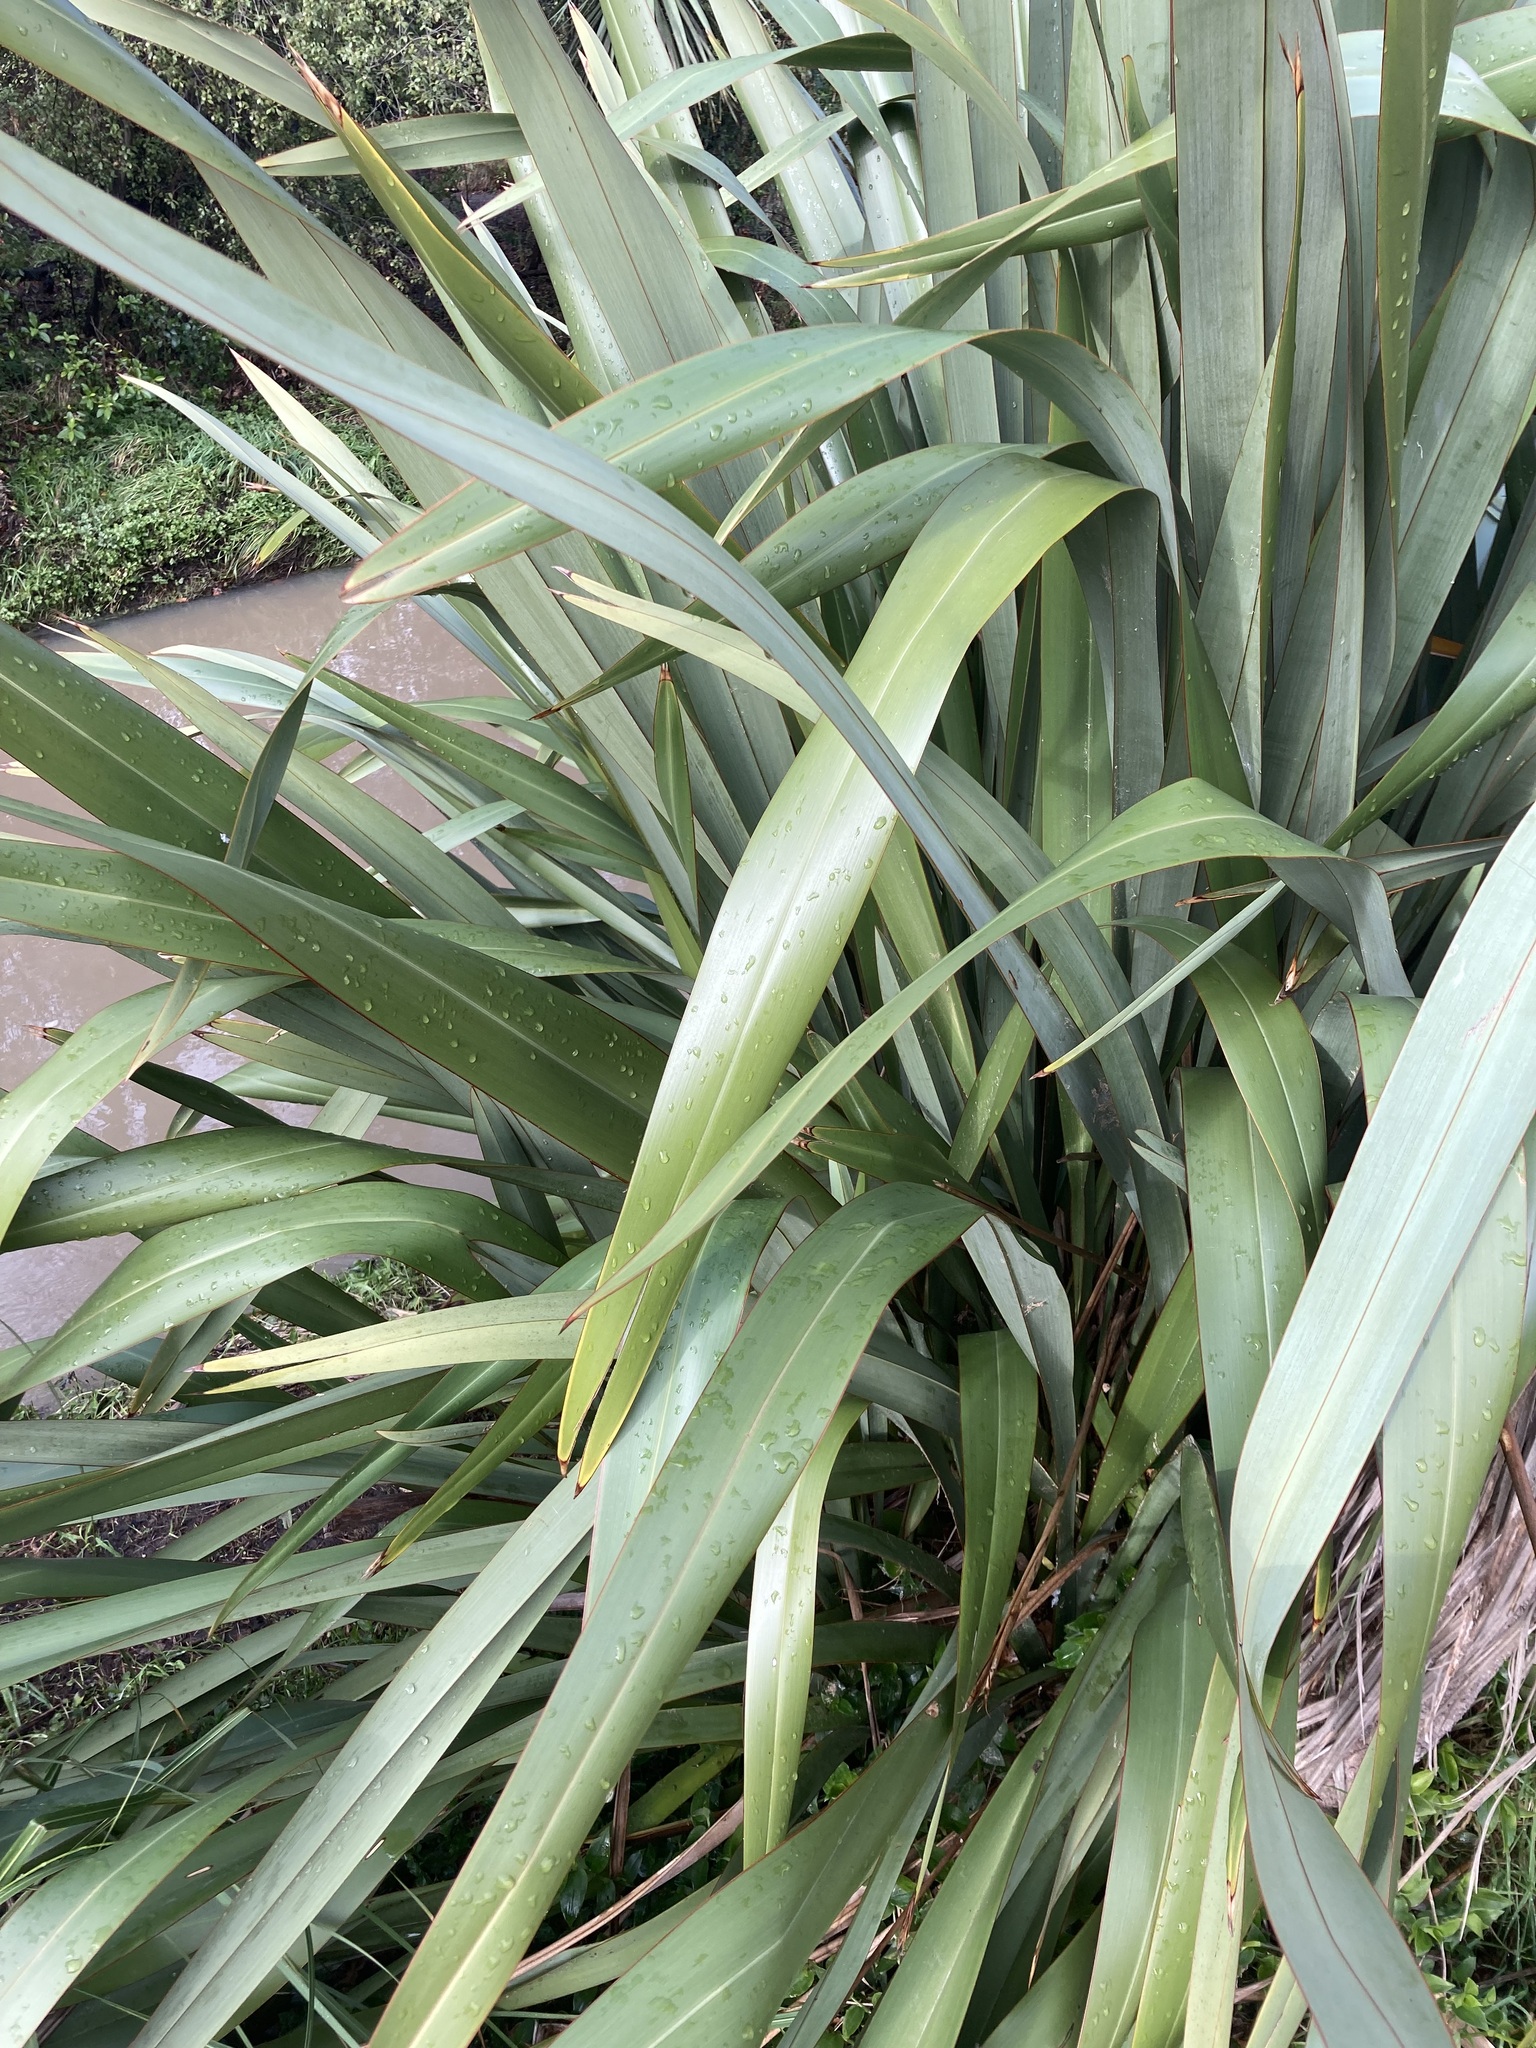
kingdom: Plantae
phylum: Tracheophyta
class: Liliopsida
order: Asparagales
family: Asphodelaceae
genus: Phormium
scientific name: Phormium tenax
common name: New zealand flax
